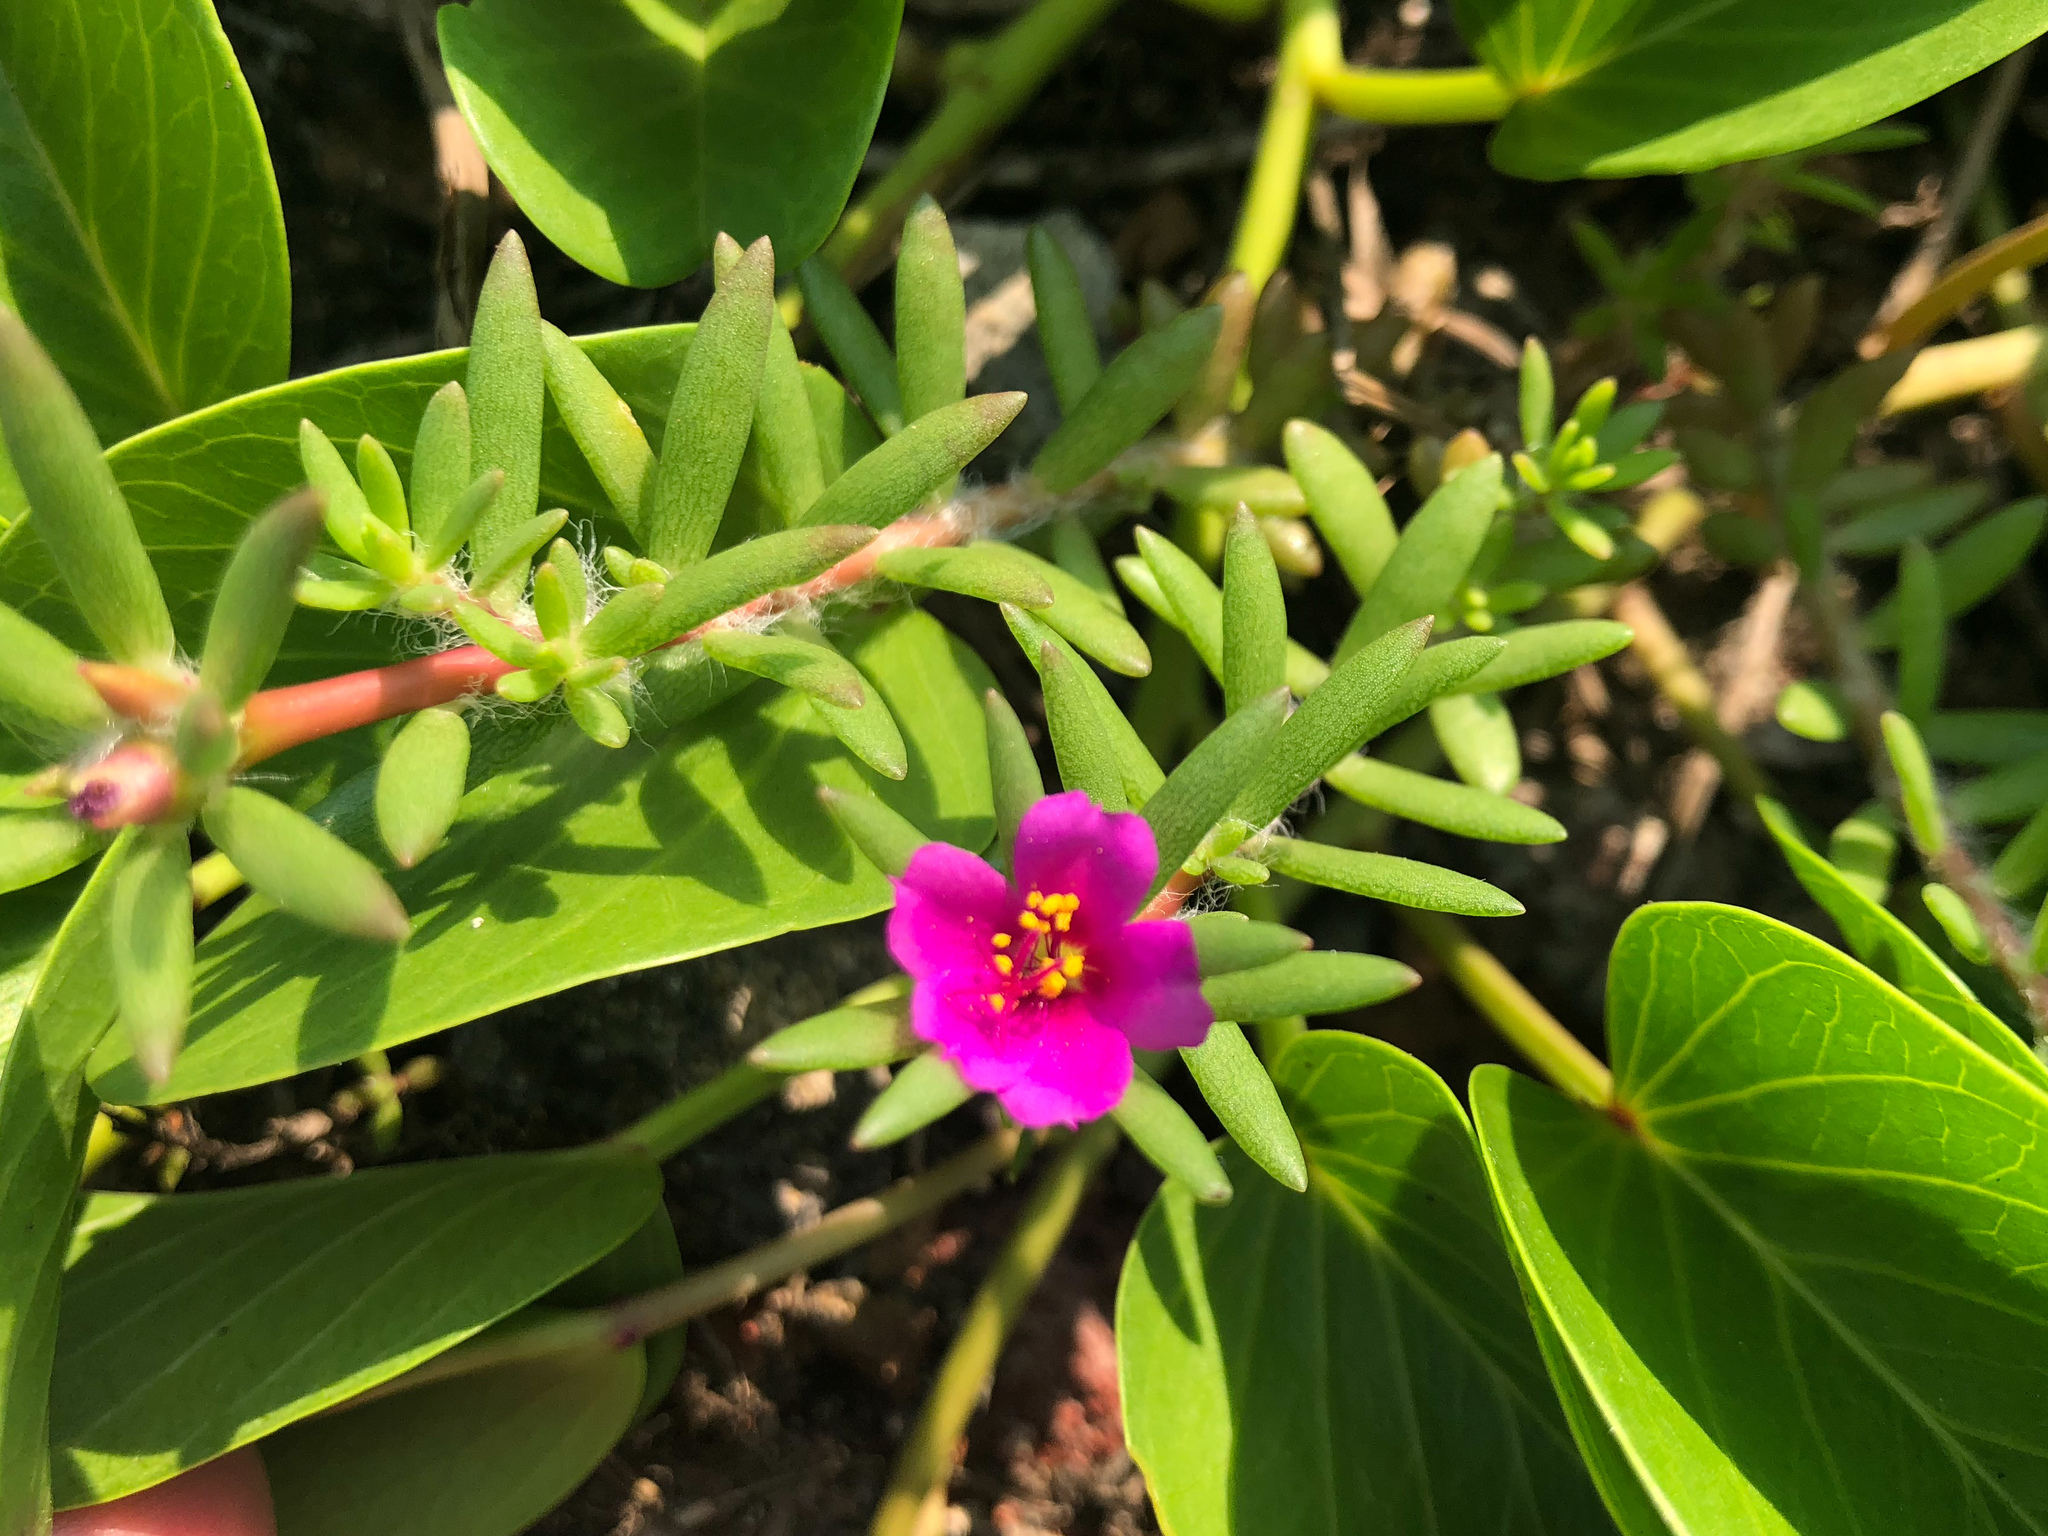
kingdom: Plantae
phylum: Tracheophyta
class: Magnoliopsida
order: Caryophyllales
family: Portulacaceae
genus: Portulaca
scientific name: Portulaca pilosa
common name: Kiss me quick
